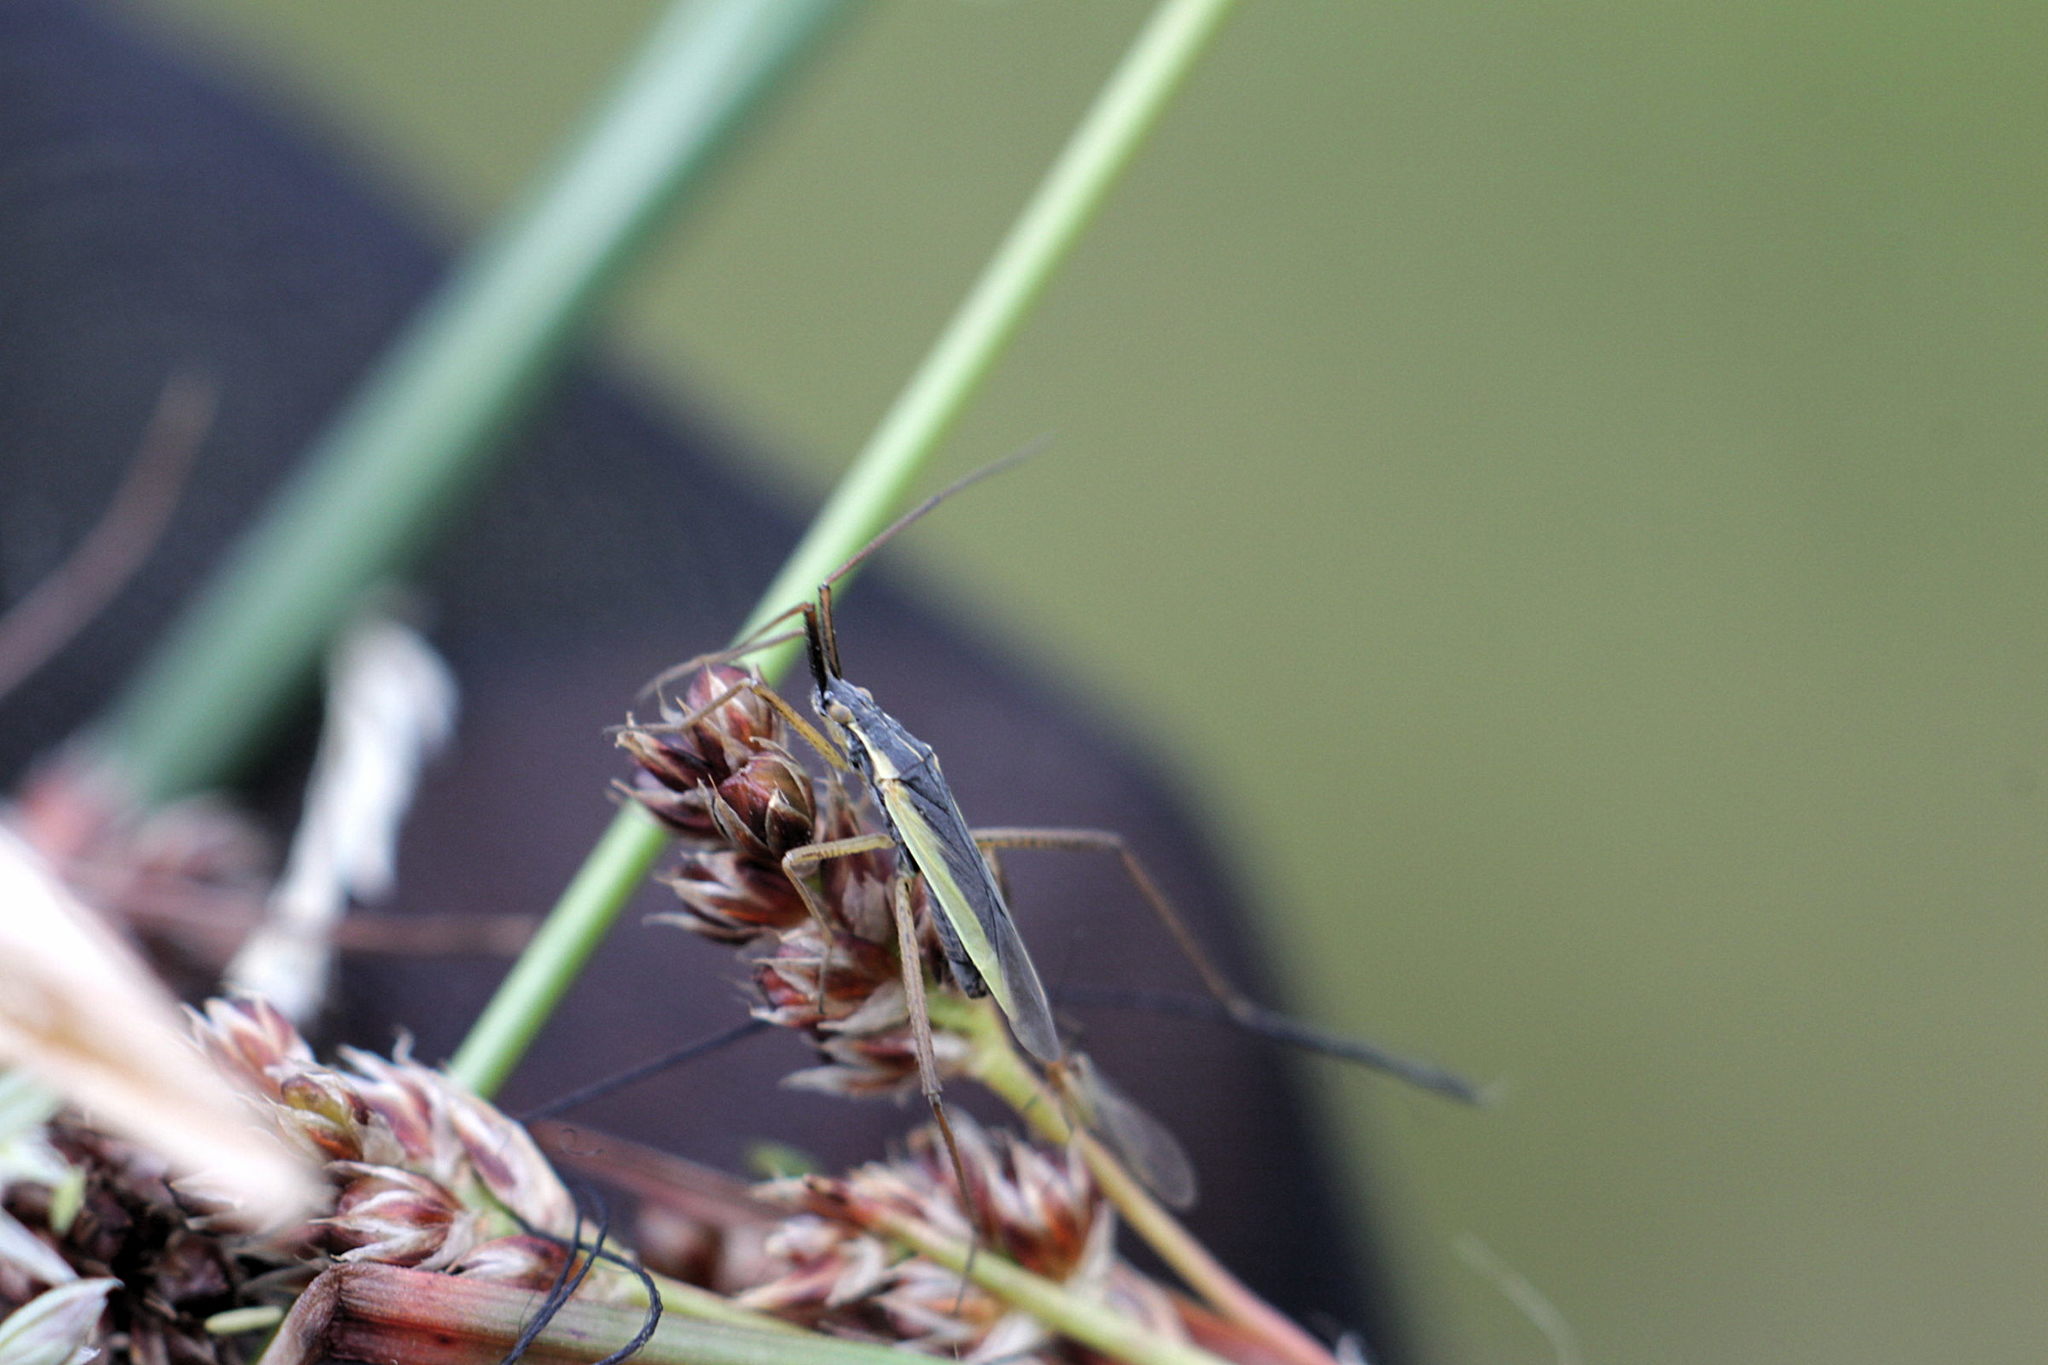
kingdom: Animalia
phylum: Arthropoda
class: Insecta
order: Hemiptera
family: Miridae
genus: Notostira
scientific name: Notostira elongata
